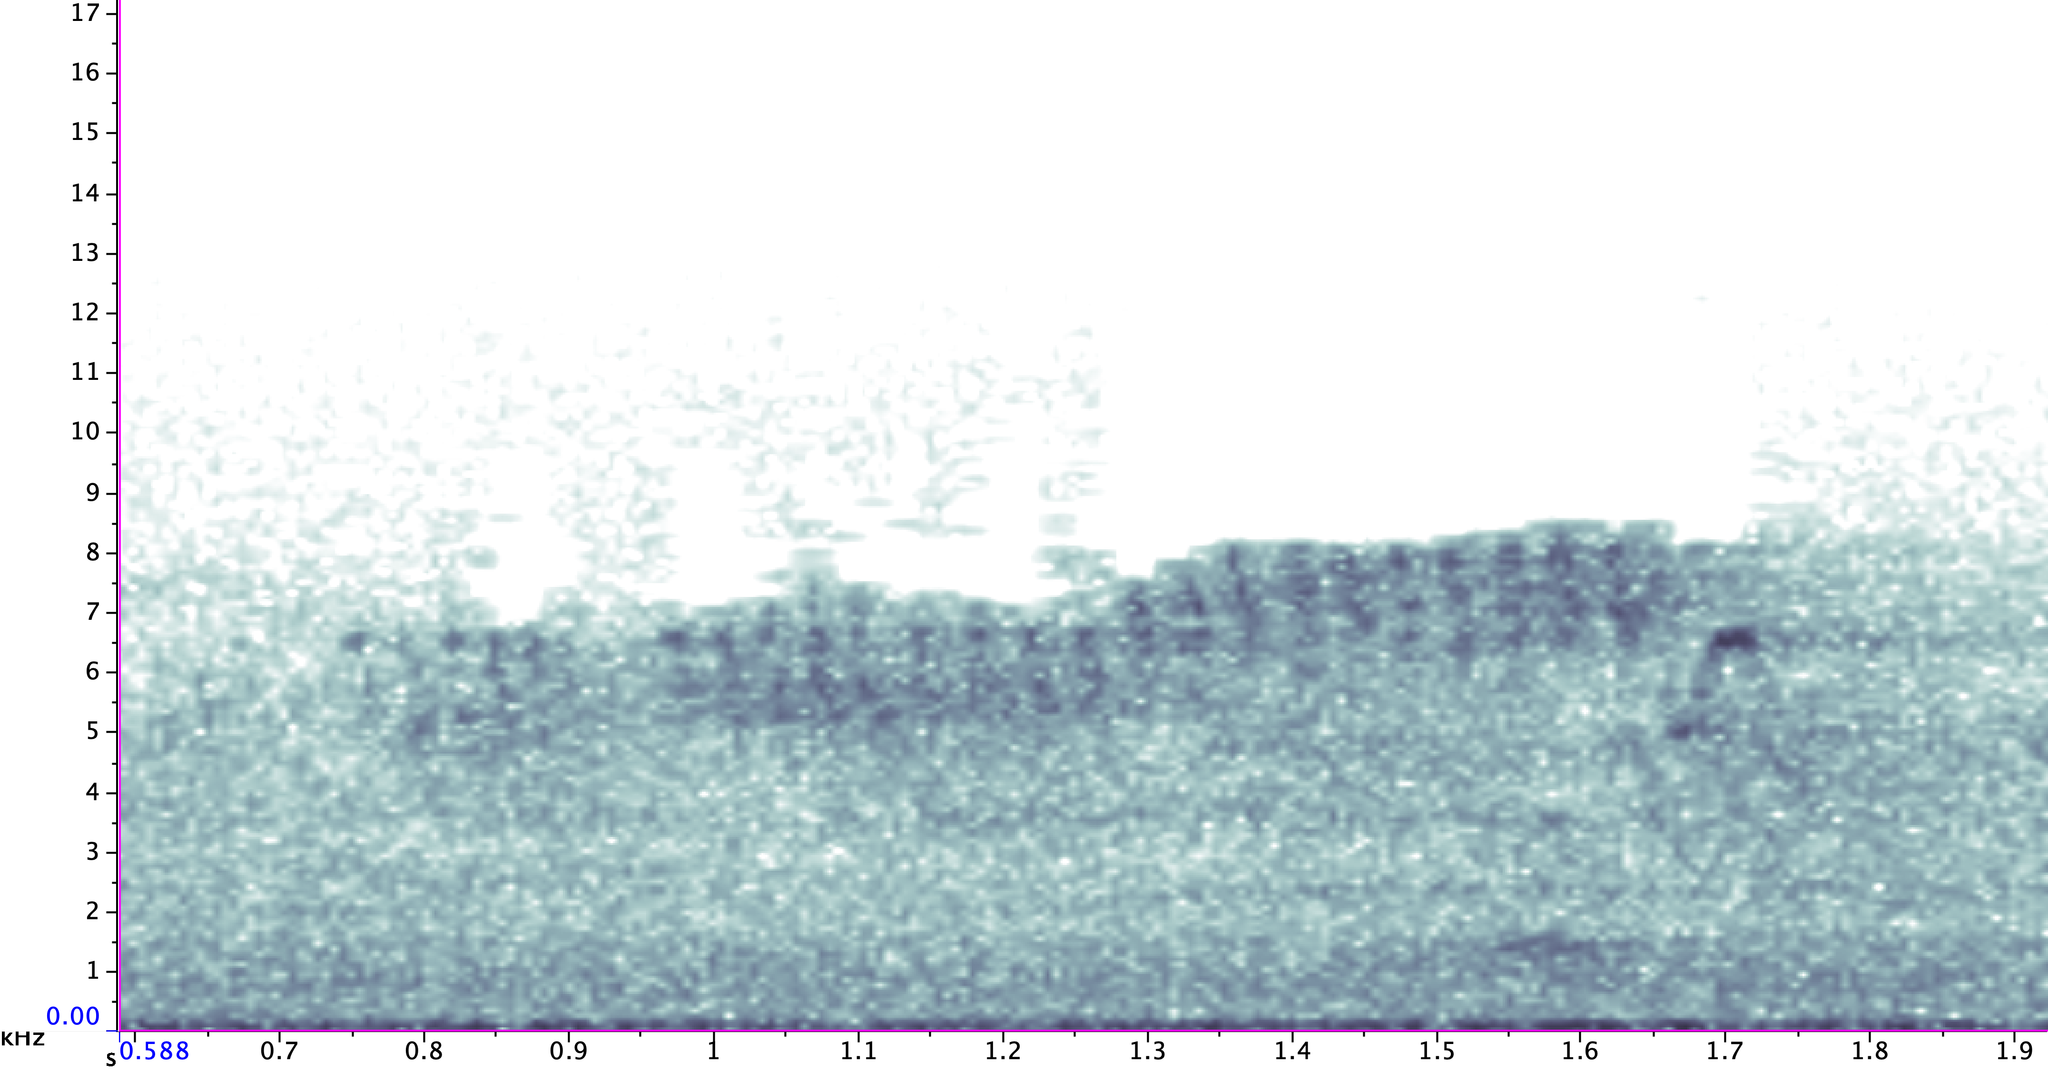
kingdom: Animalia
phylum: Chordata
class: Aves
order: Passeriformes
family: Parulidae
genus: Setophaga
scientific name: Setophaga americana
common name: Northern parula
